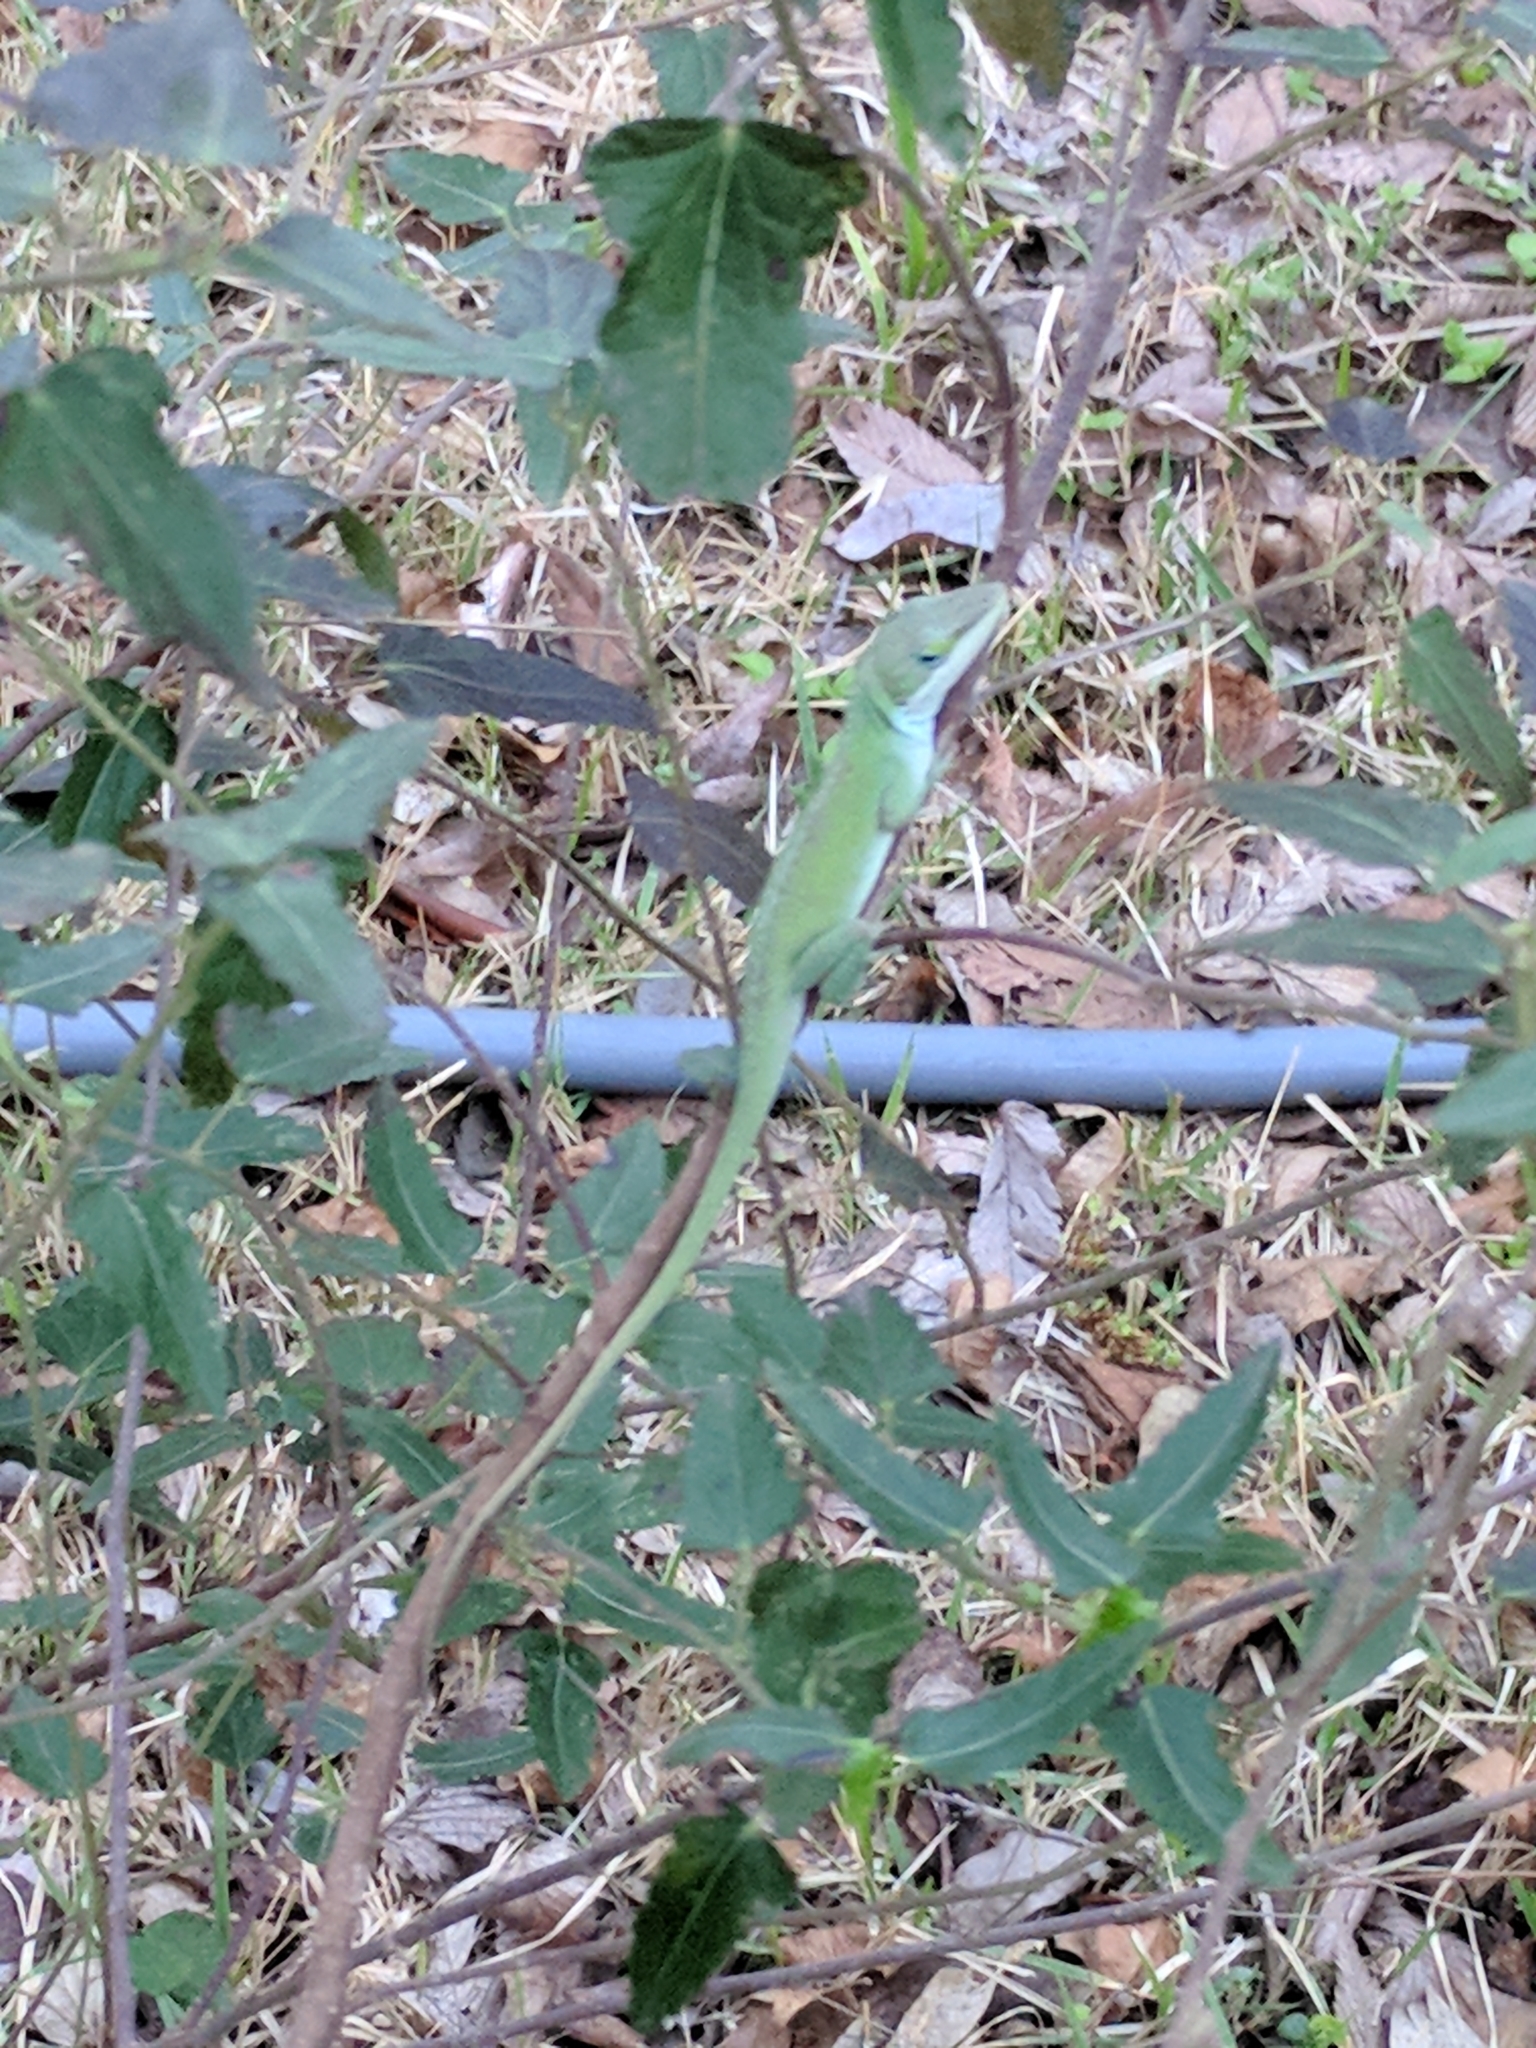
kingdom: Animalia
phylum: Chordata
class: Squamata
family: Dactyloidae
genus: Anolis
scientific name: Anolis carolinensis
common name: Green anole
